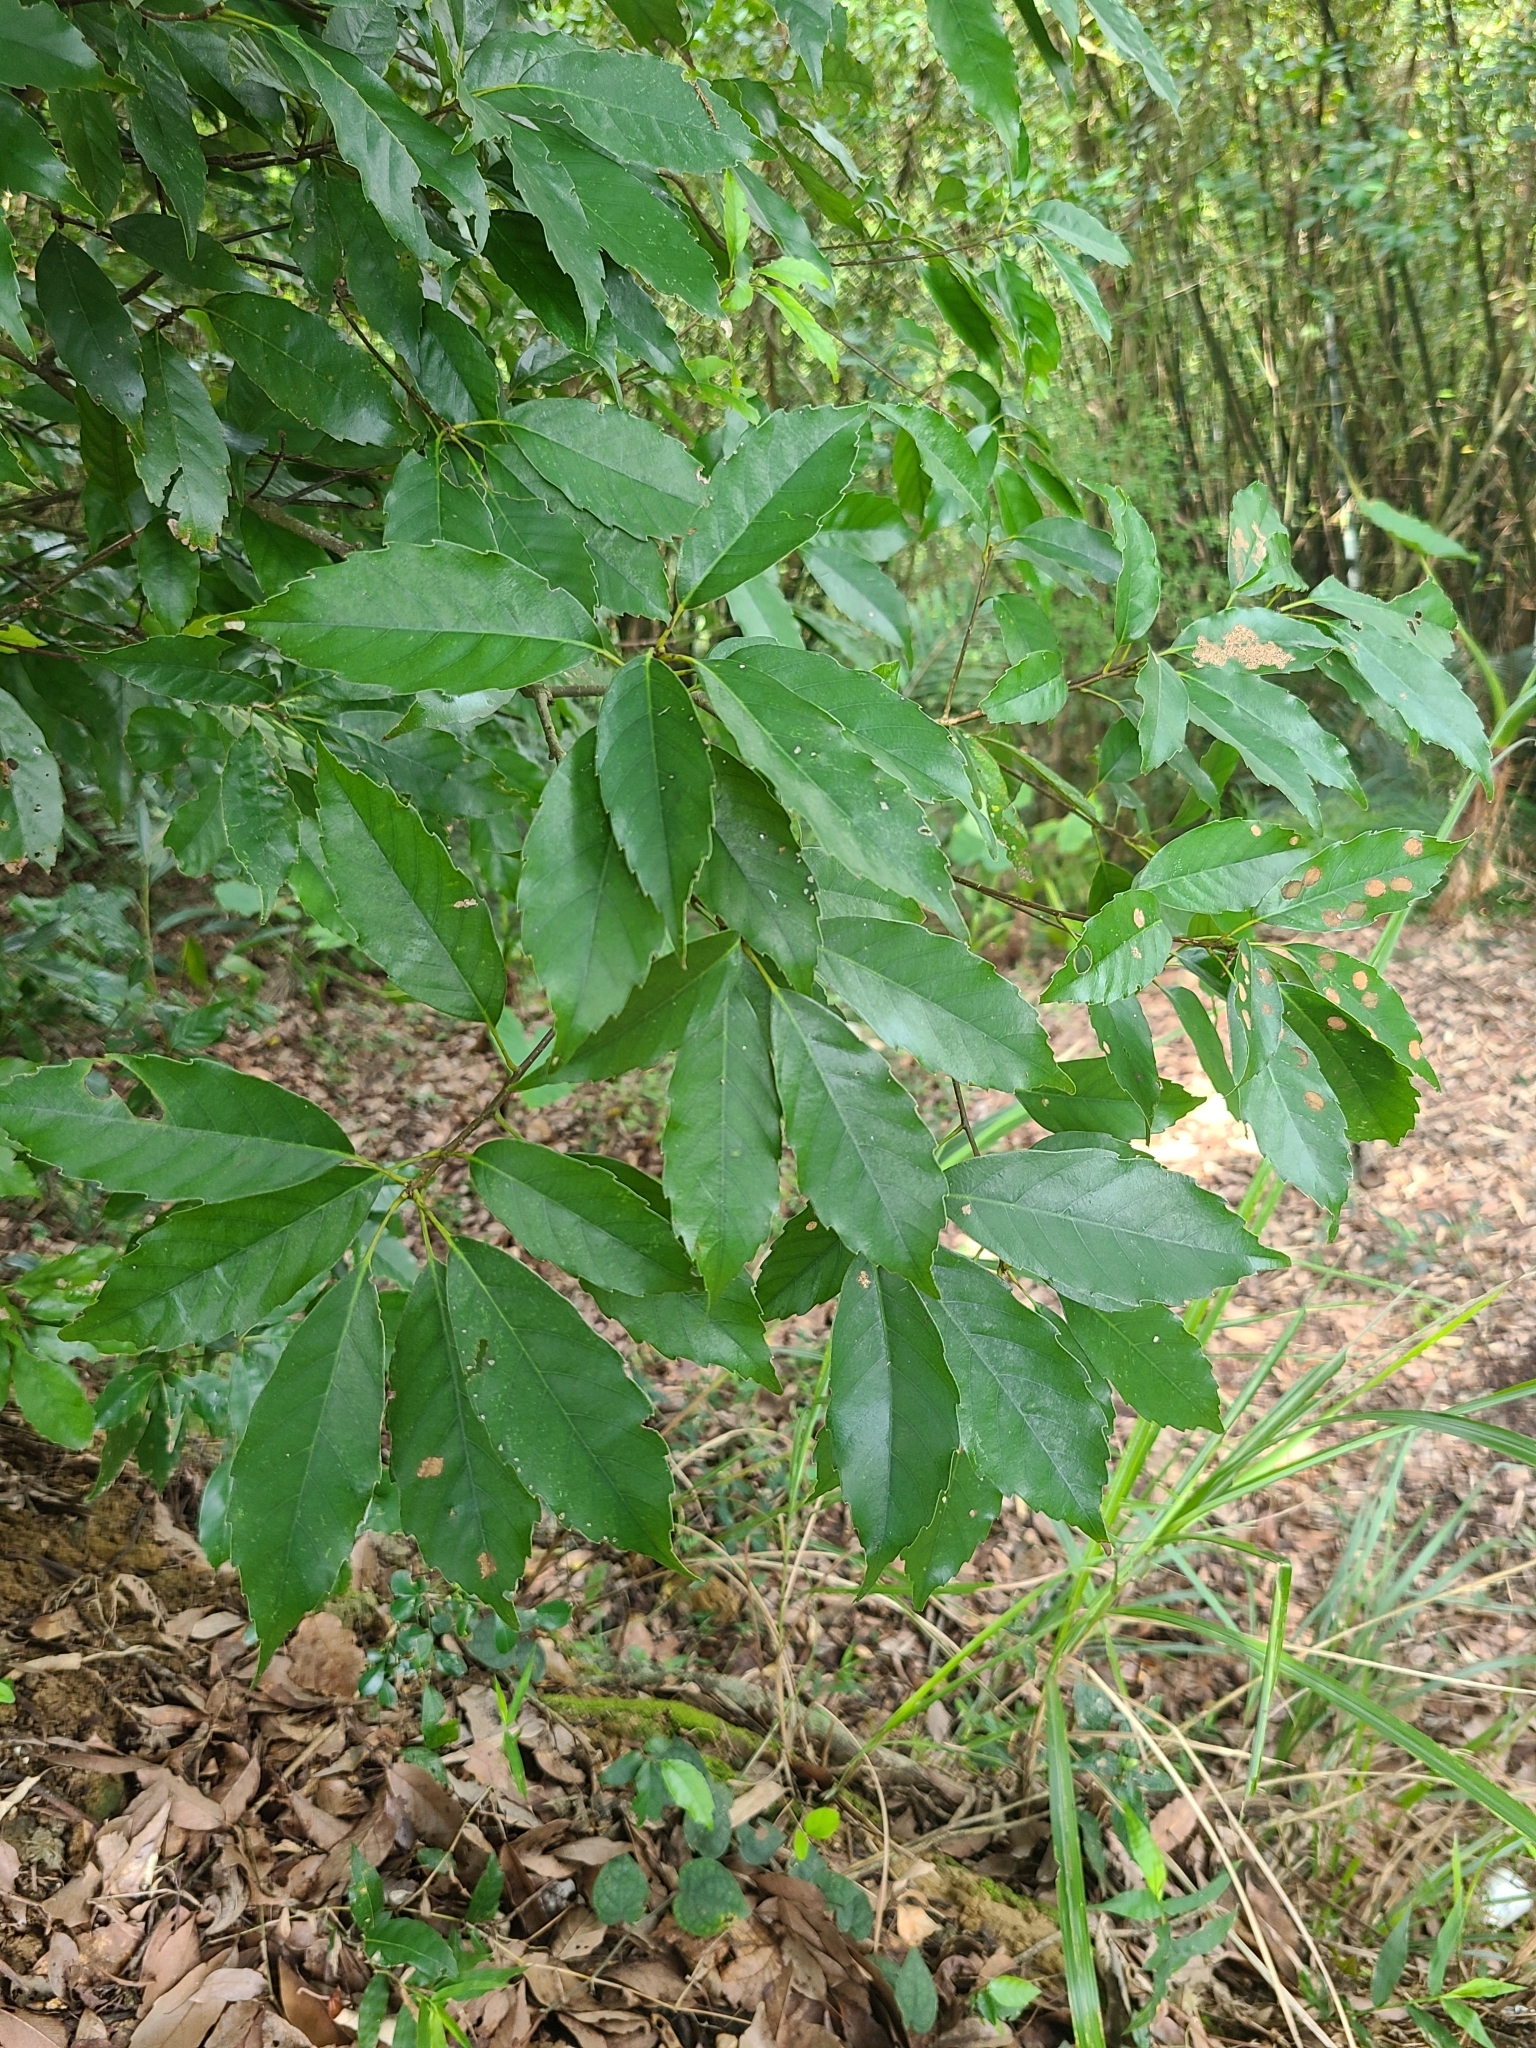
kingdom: Plantae
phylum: Tracheophyta
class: Magnoliopsida
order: Fagales
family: Fagaceae
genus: Quercus
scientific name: Quercus glauca
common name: Ring-cup oak
